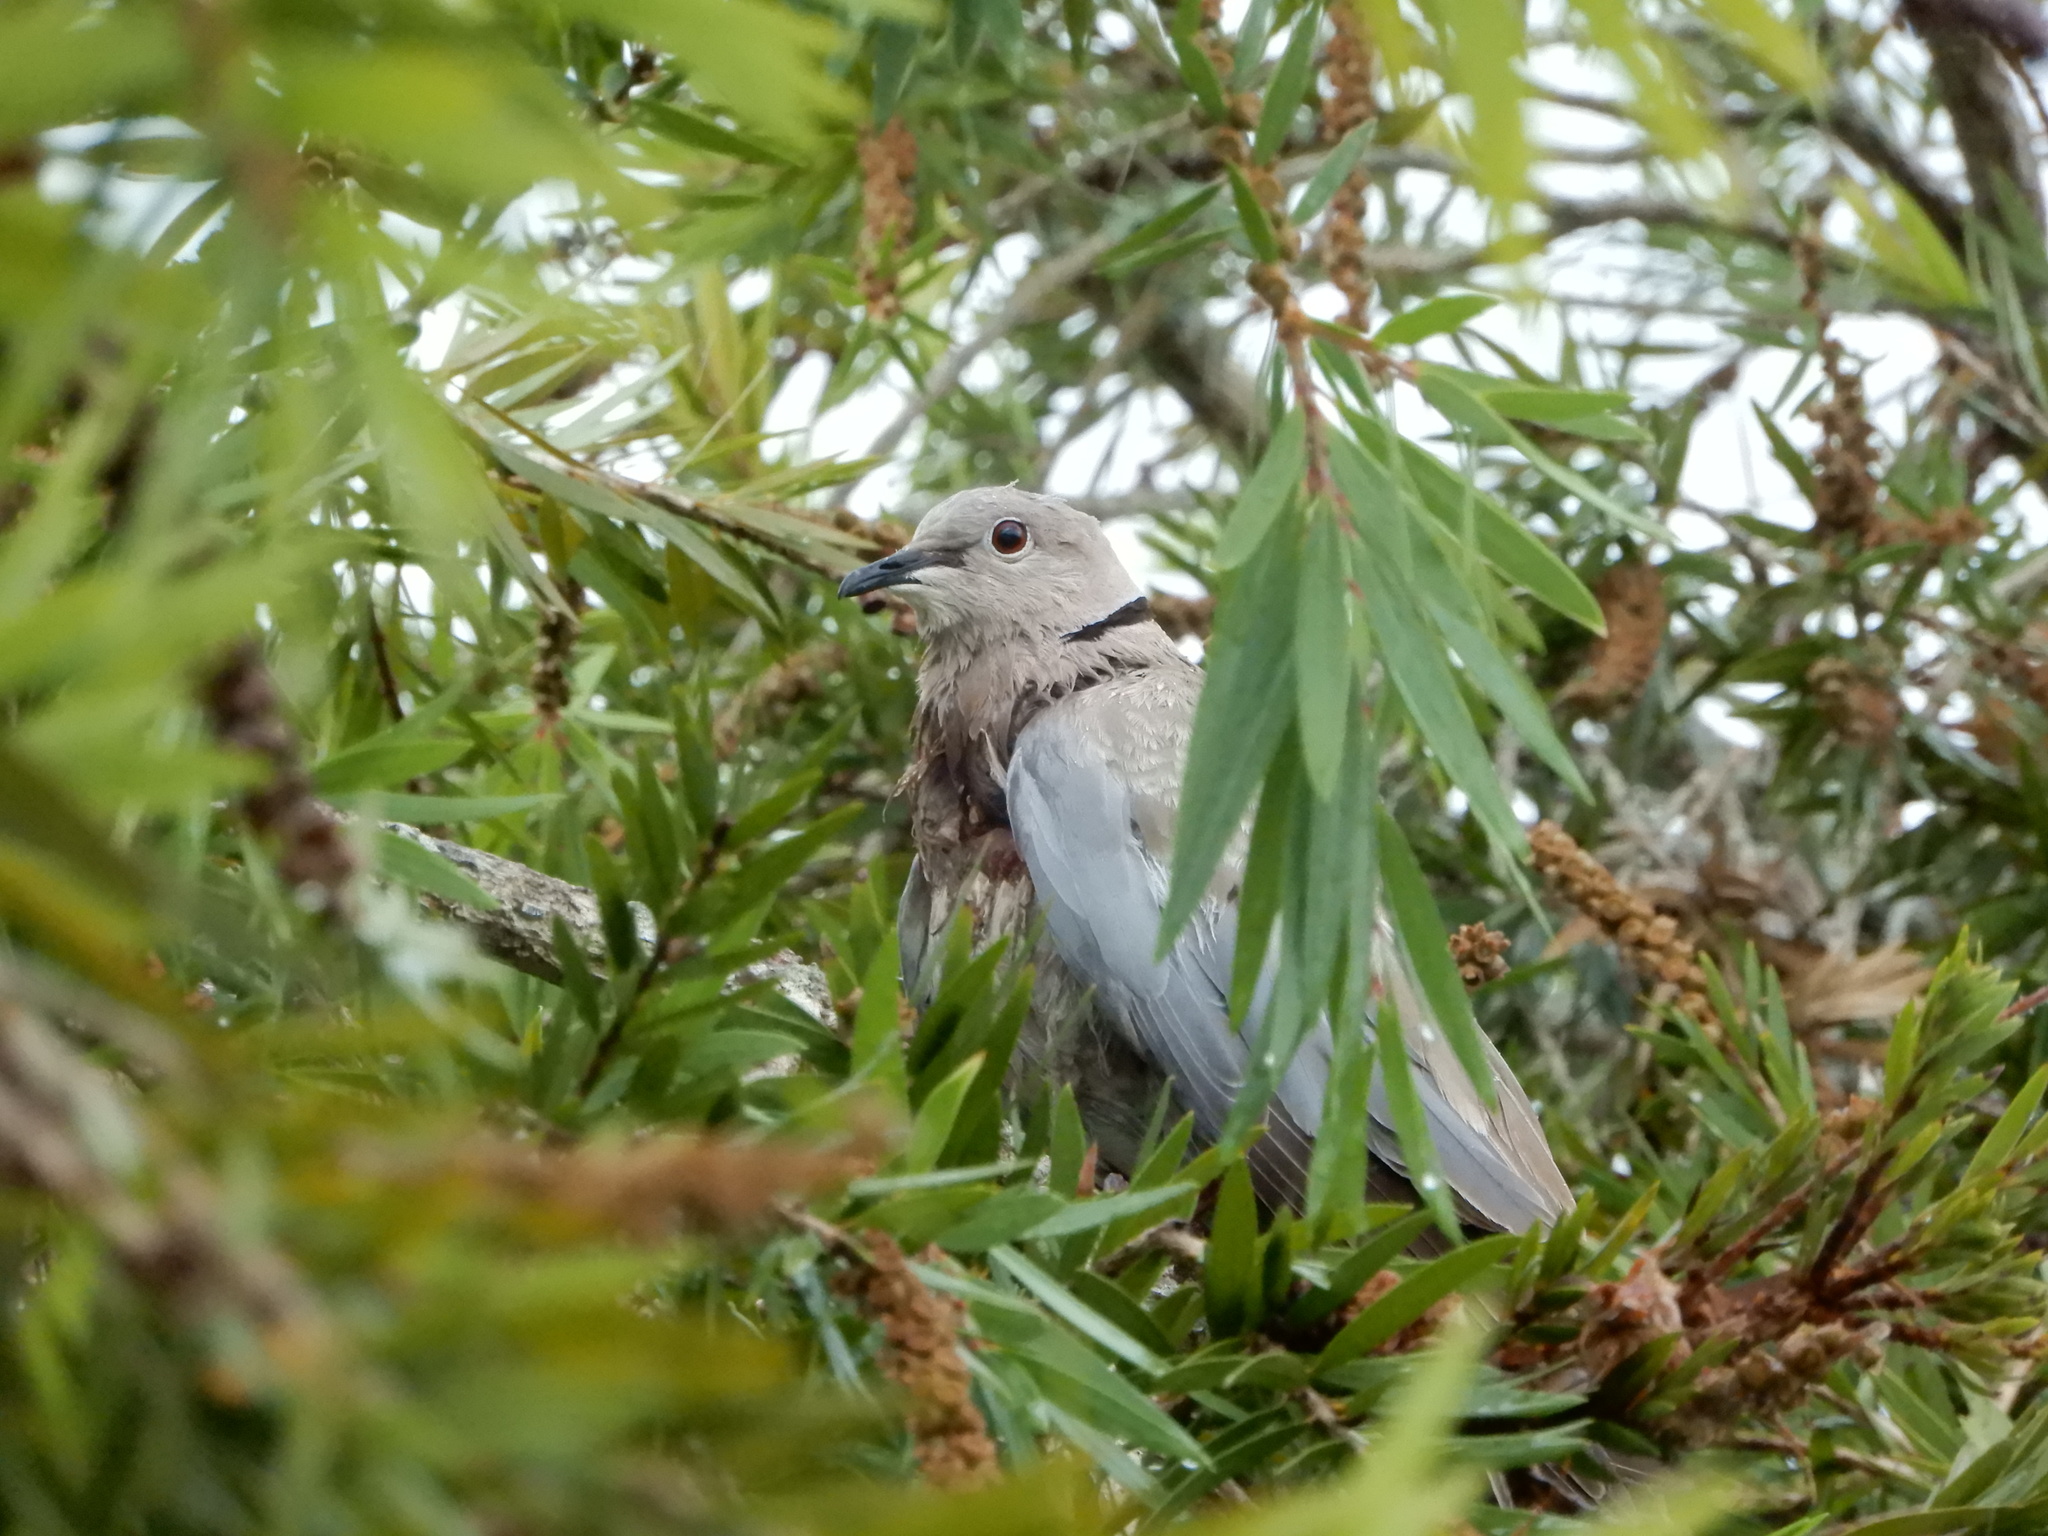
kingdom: Animalia
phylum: Chordata
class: Aves
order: Columbiformes
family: Columbidae
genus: Streptopelia
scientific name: Streptopelia decaocto
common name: Eurasian collared dove
